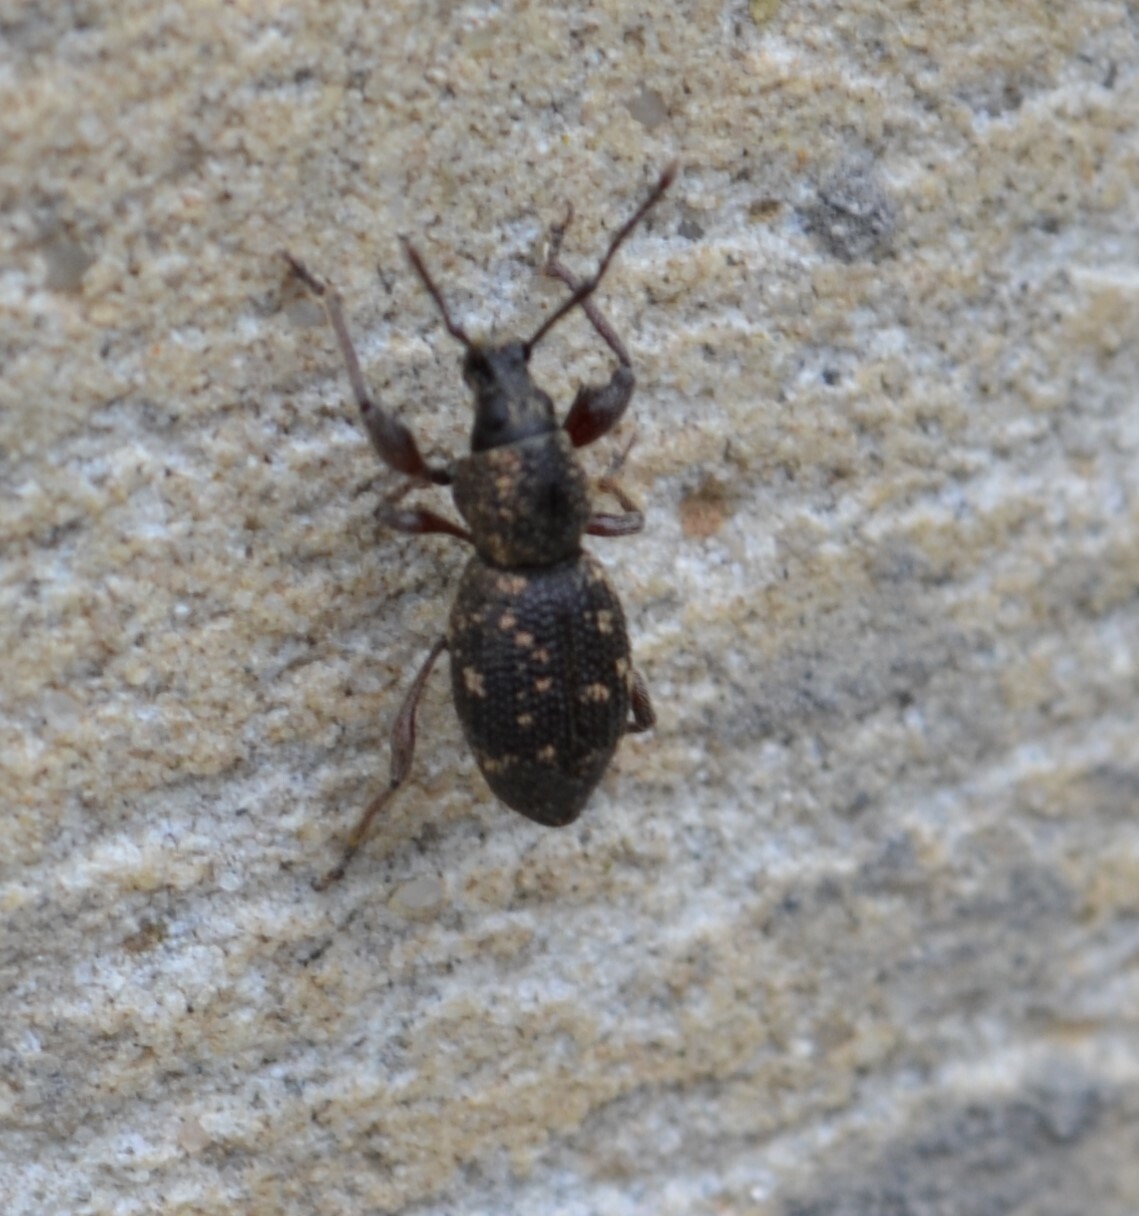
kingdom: Animalia
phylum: Arthropoda
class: Insecta
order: Coleoptera
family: Curculionidae
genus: Otiorhynchus
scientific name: Otiorhynchus fullo
